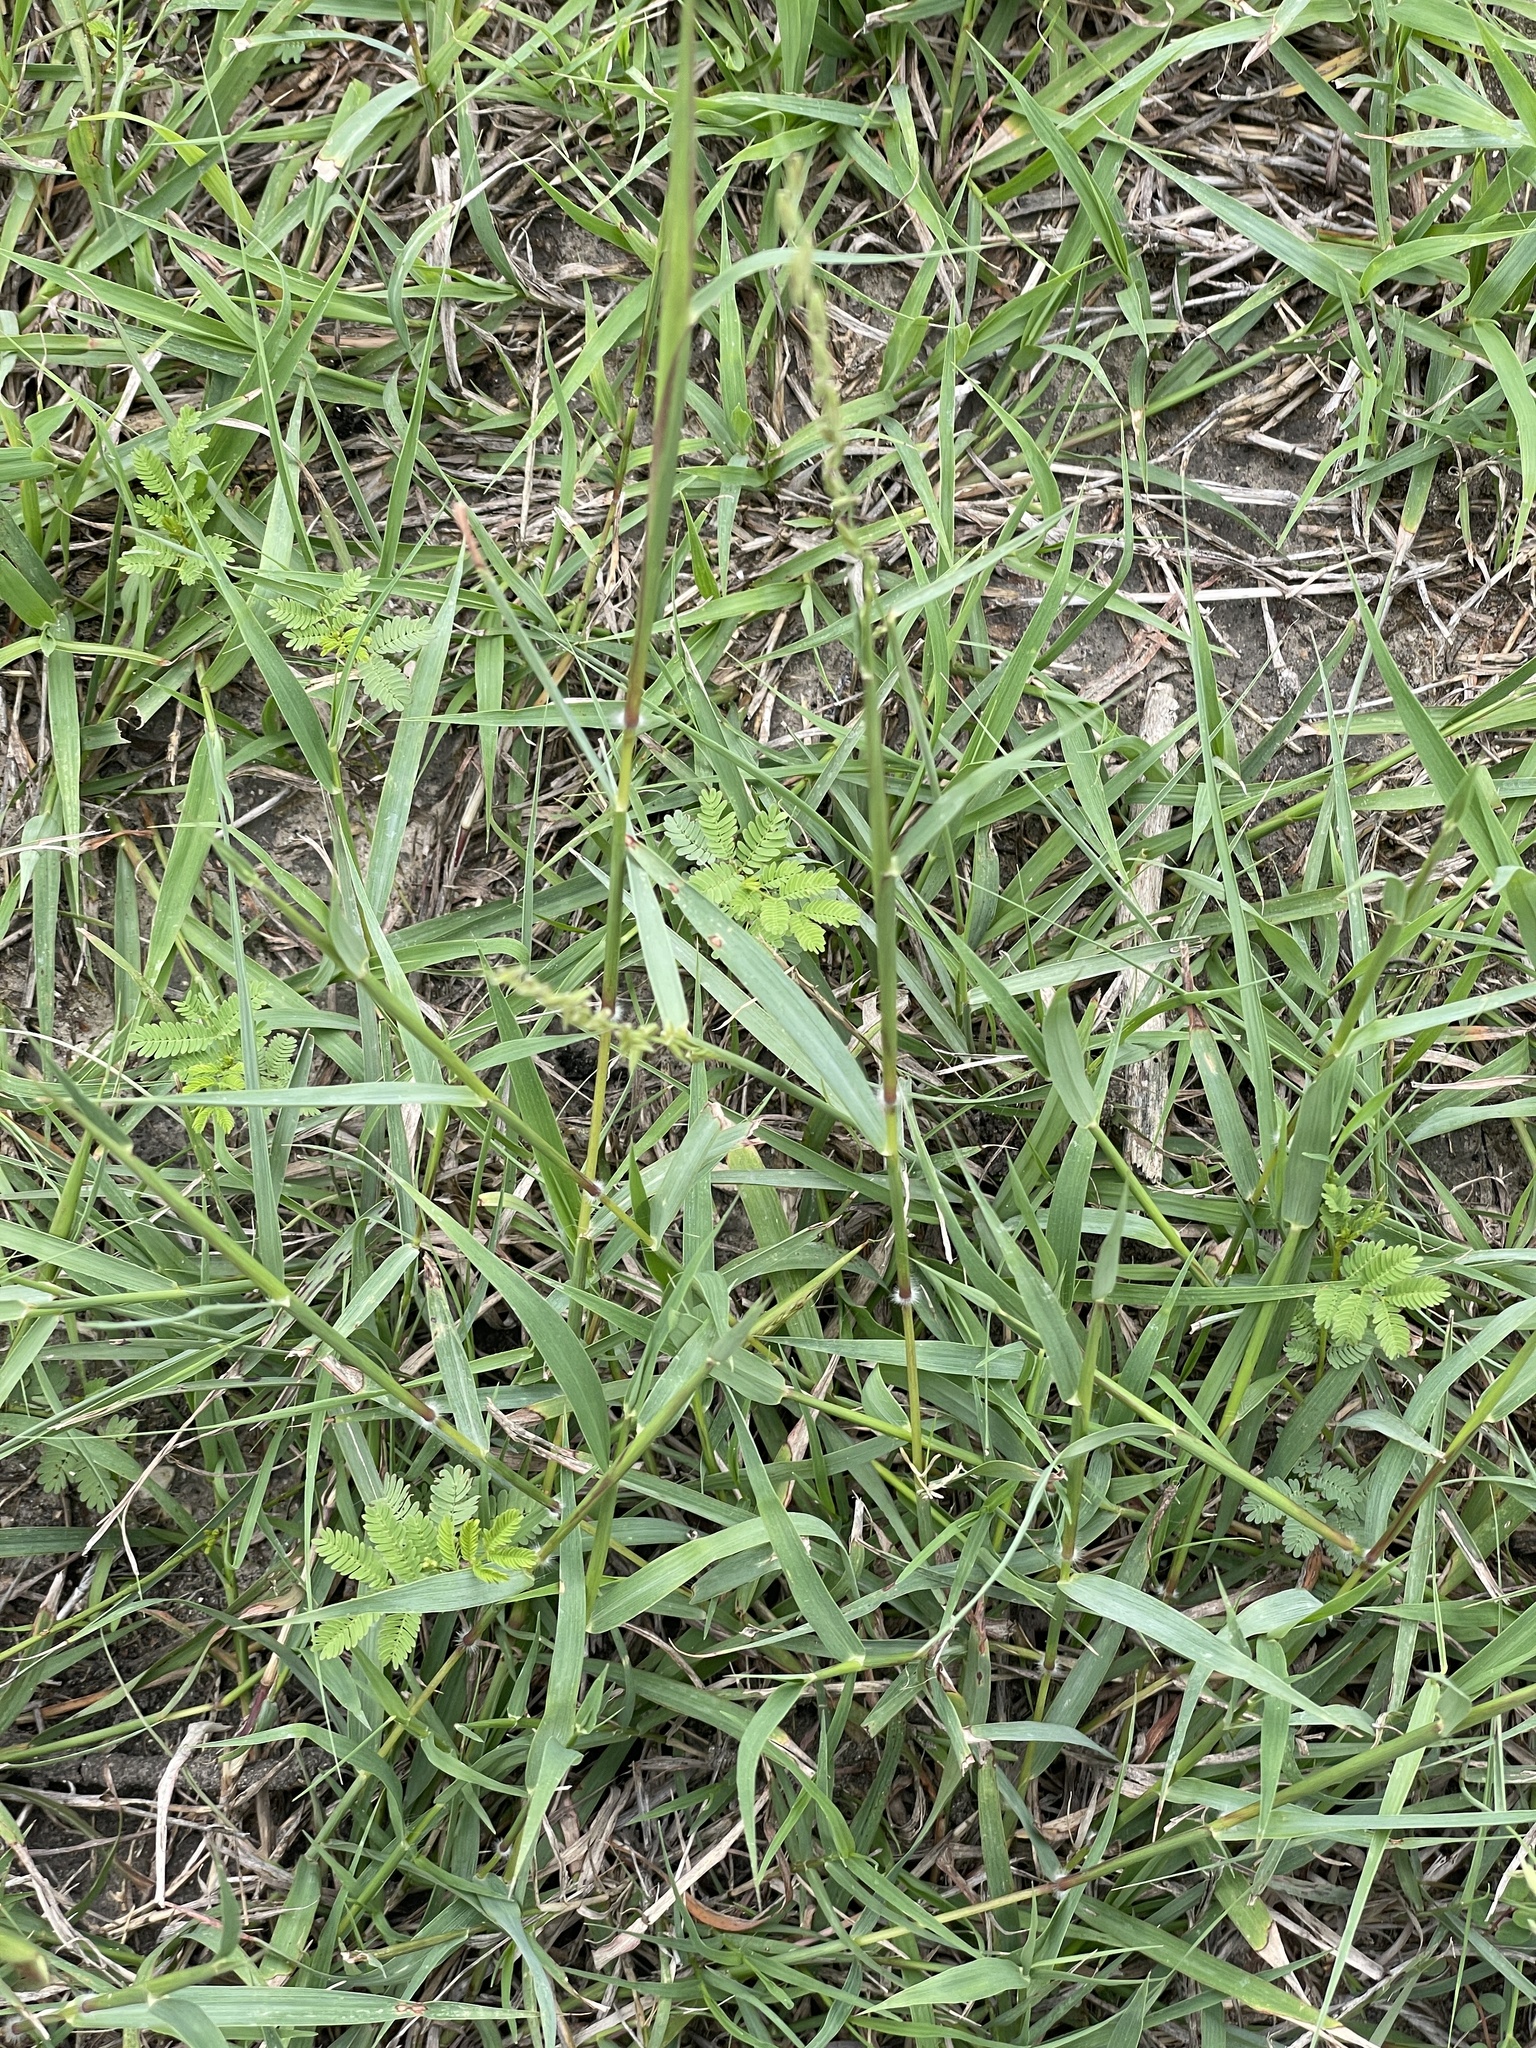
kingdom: Plantae
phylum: Tracheophyta
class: Liliopsida
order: Poales
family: Poaceae
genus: Bouteloua
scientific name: Bouteloua curtipendula
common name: Side-oats grama
